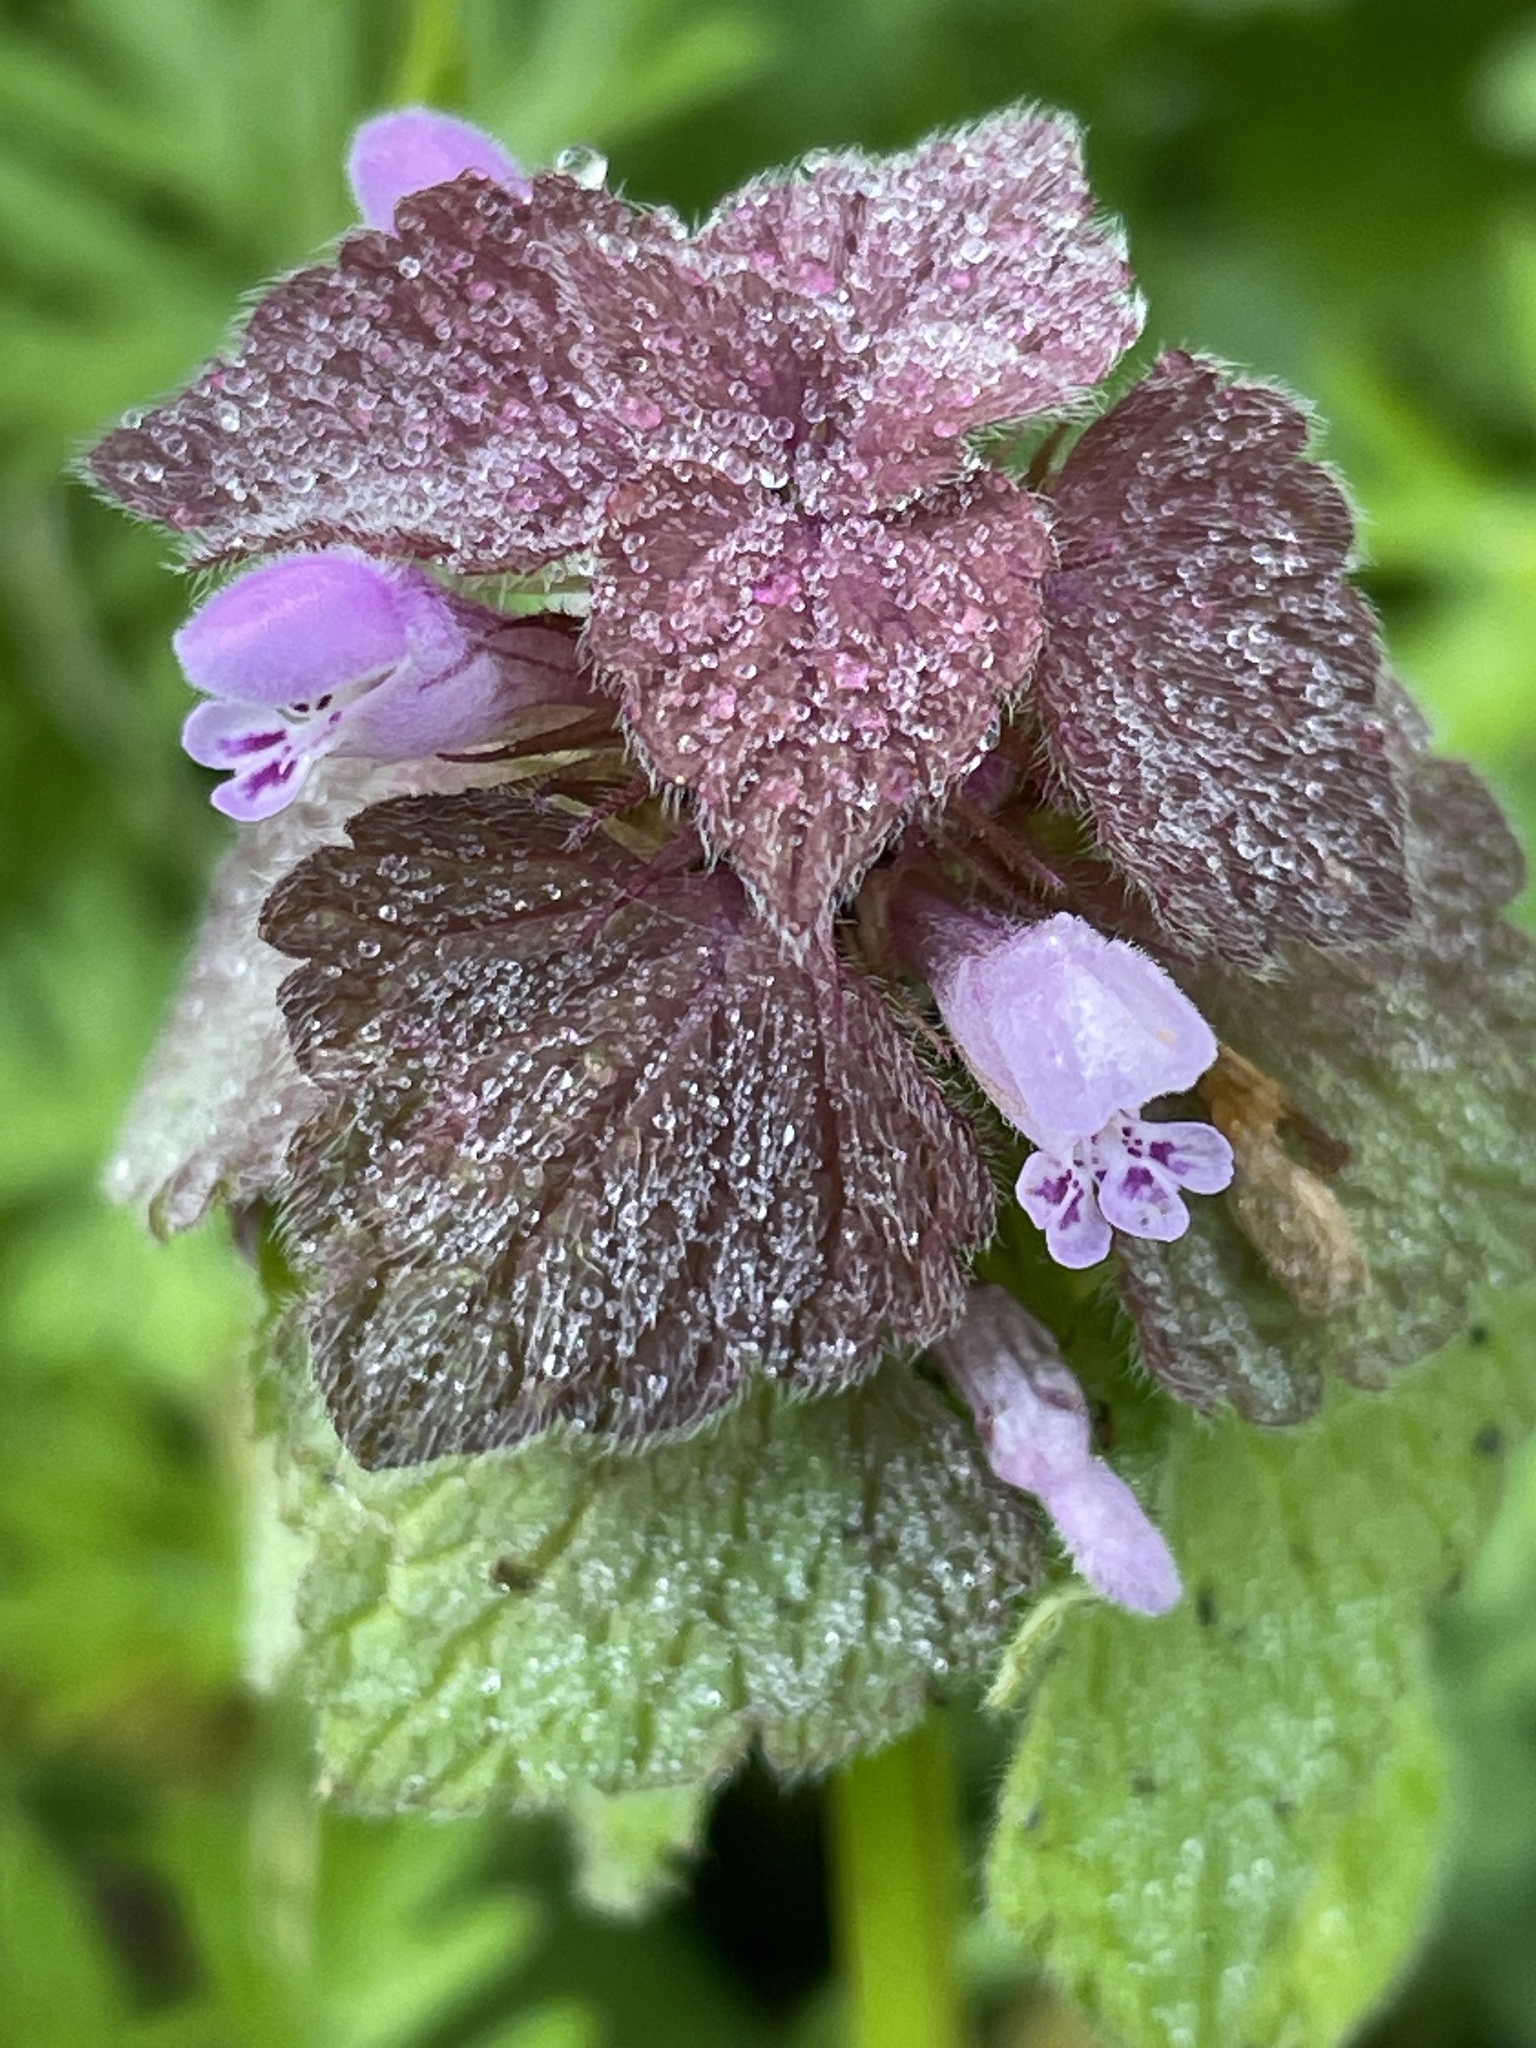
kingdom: Plantae
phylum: Tracheophyta
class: Magnoliopsida
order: Lamiales
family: Lamiaceae
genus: Lamium
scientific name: Lamium purpureum
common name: Red dead-nettle
